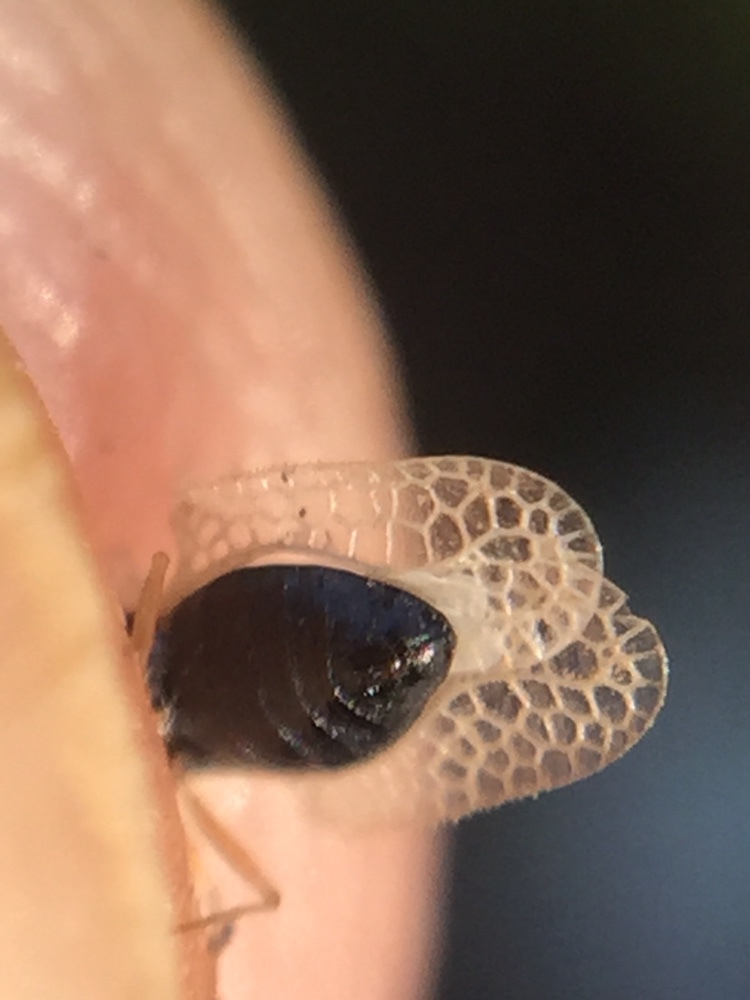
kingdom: Animalia
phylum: Arthropoda
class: Insecta
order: Hemiptera
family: Tingidae
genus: Corythucha
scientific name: Corythucha ciliata
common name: Sycamore lace bug
